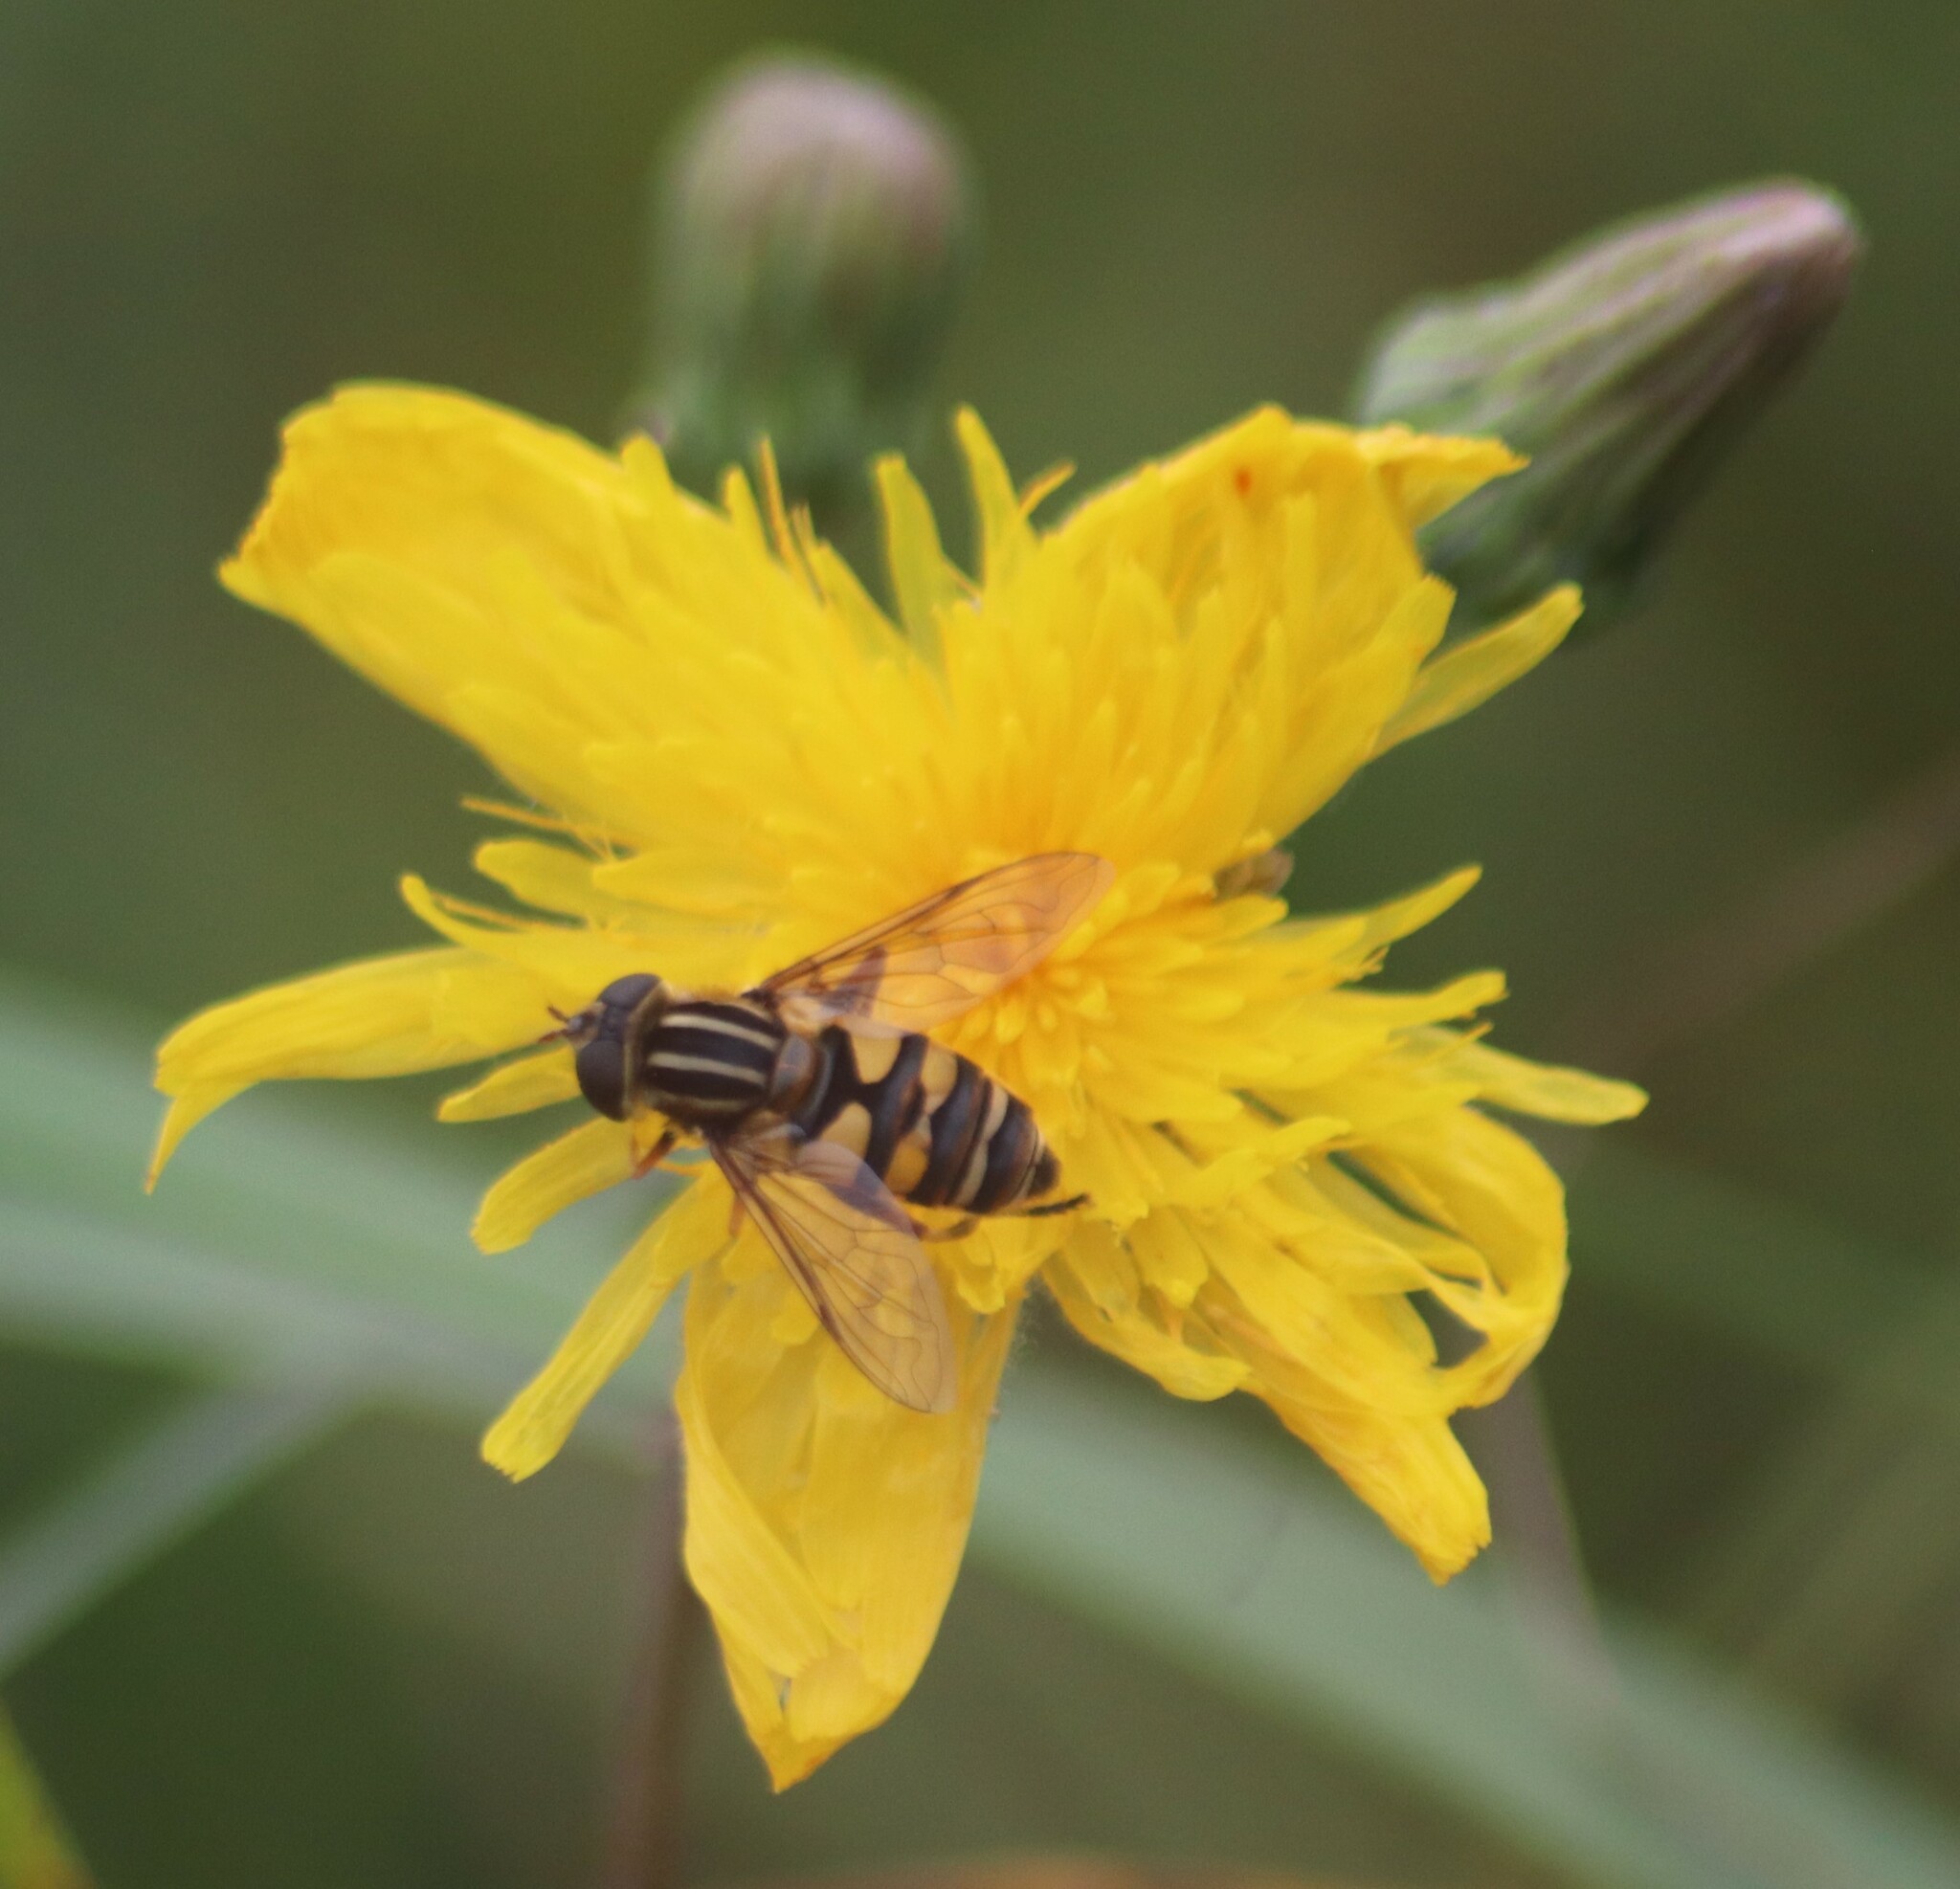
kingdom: Animalia
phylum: Arthropoda
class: Insecta
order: Diptera
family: Syrphidae
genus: Helophilus
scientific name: Helophilus fasciatus
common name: Narrow-headed marsh fly
